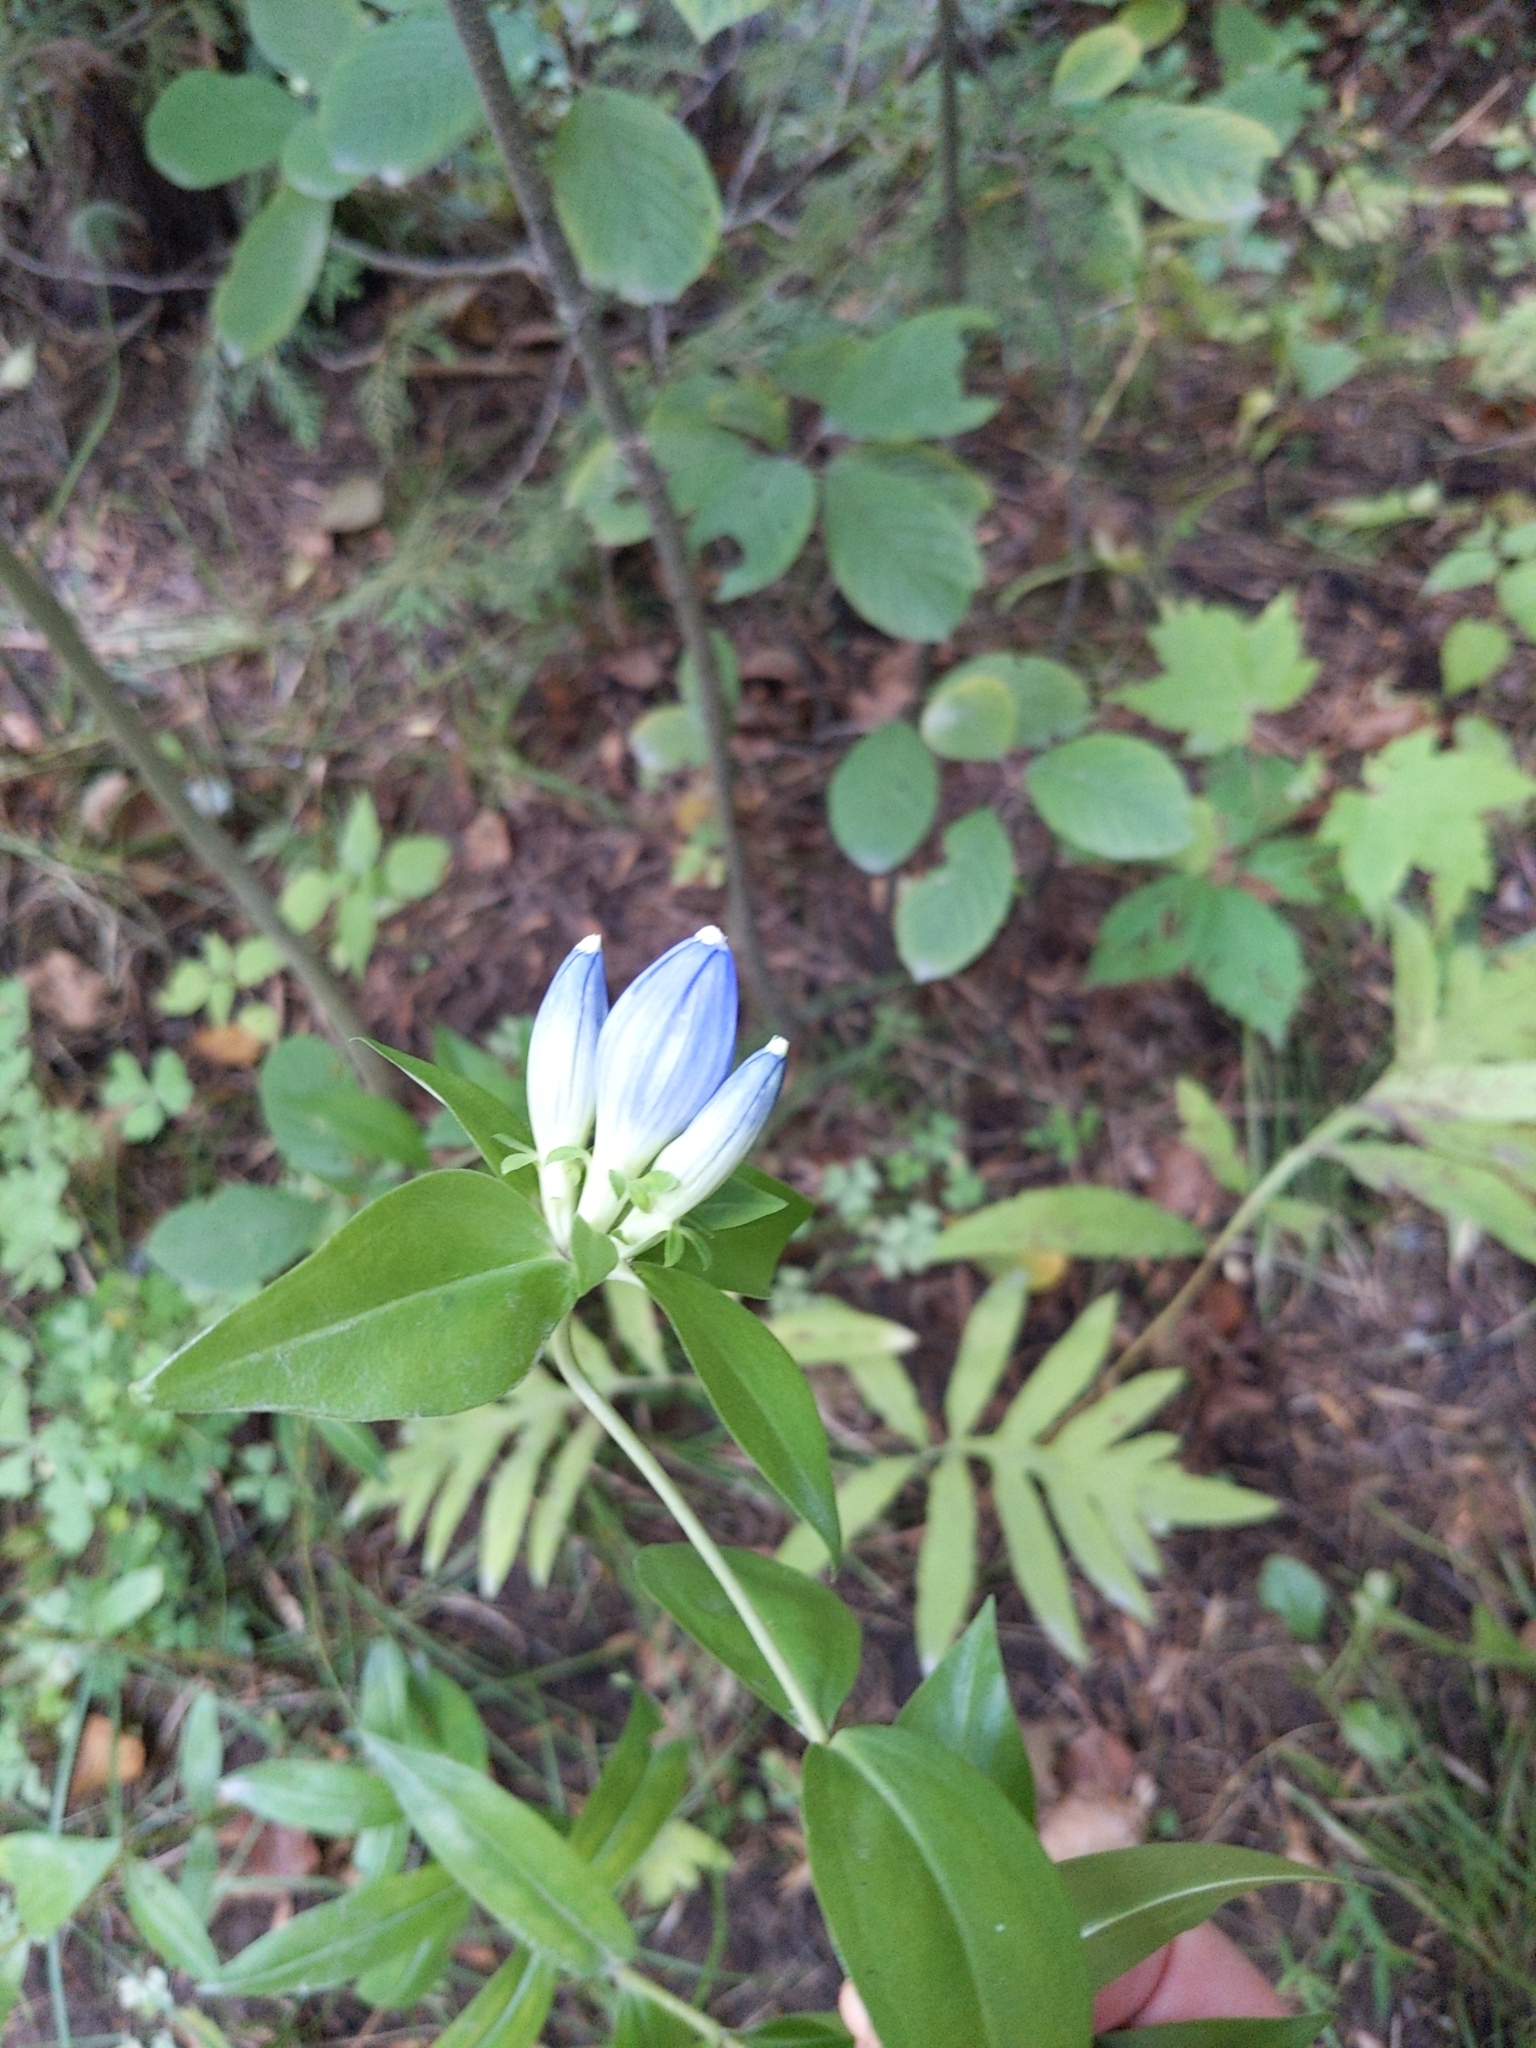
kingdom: Plantae
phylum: Tracheophyta
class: Magnoliopsida
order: Gentianales
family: Gentianaceae
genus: Gentiana
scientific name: Gentiana andrewsii
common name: Bottle gentian
